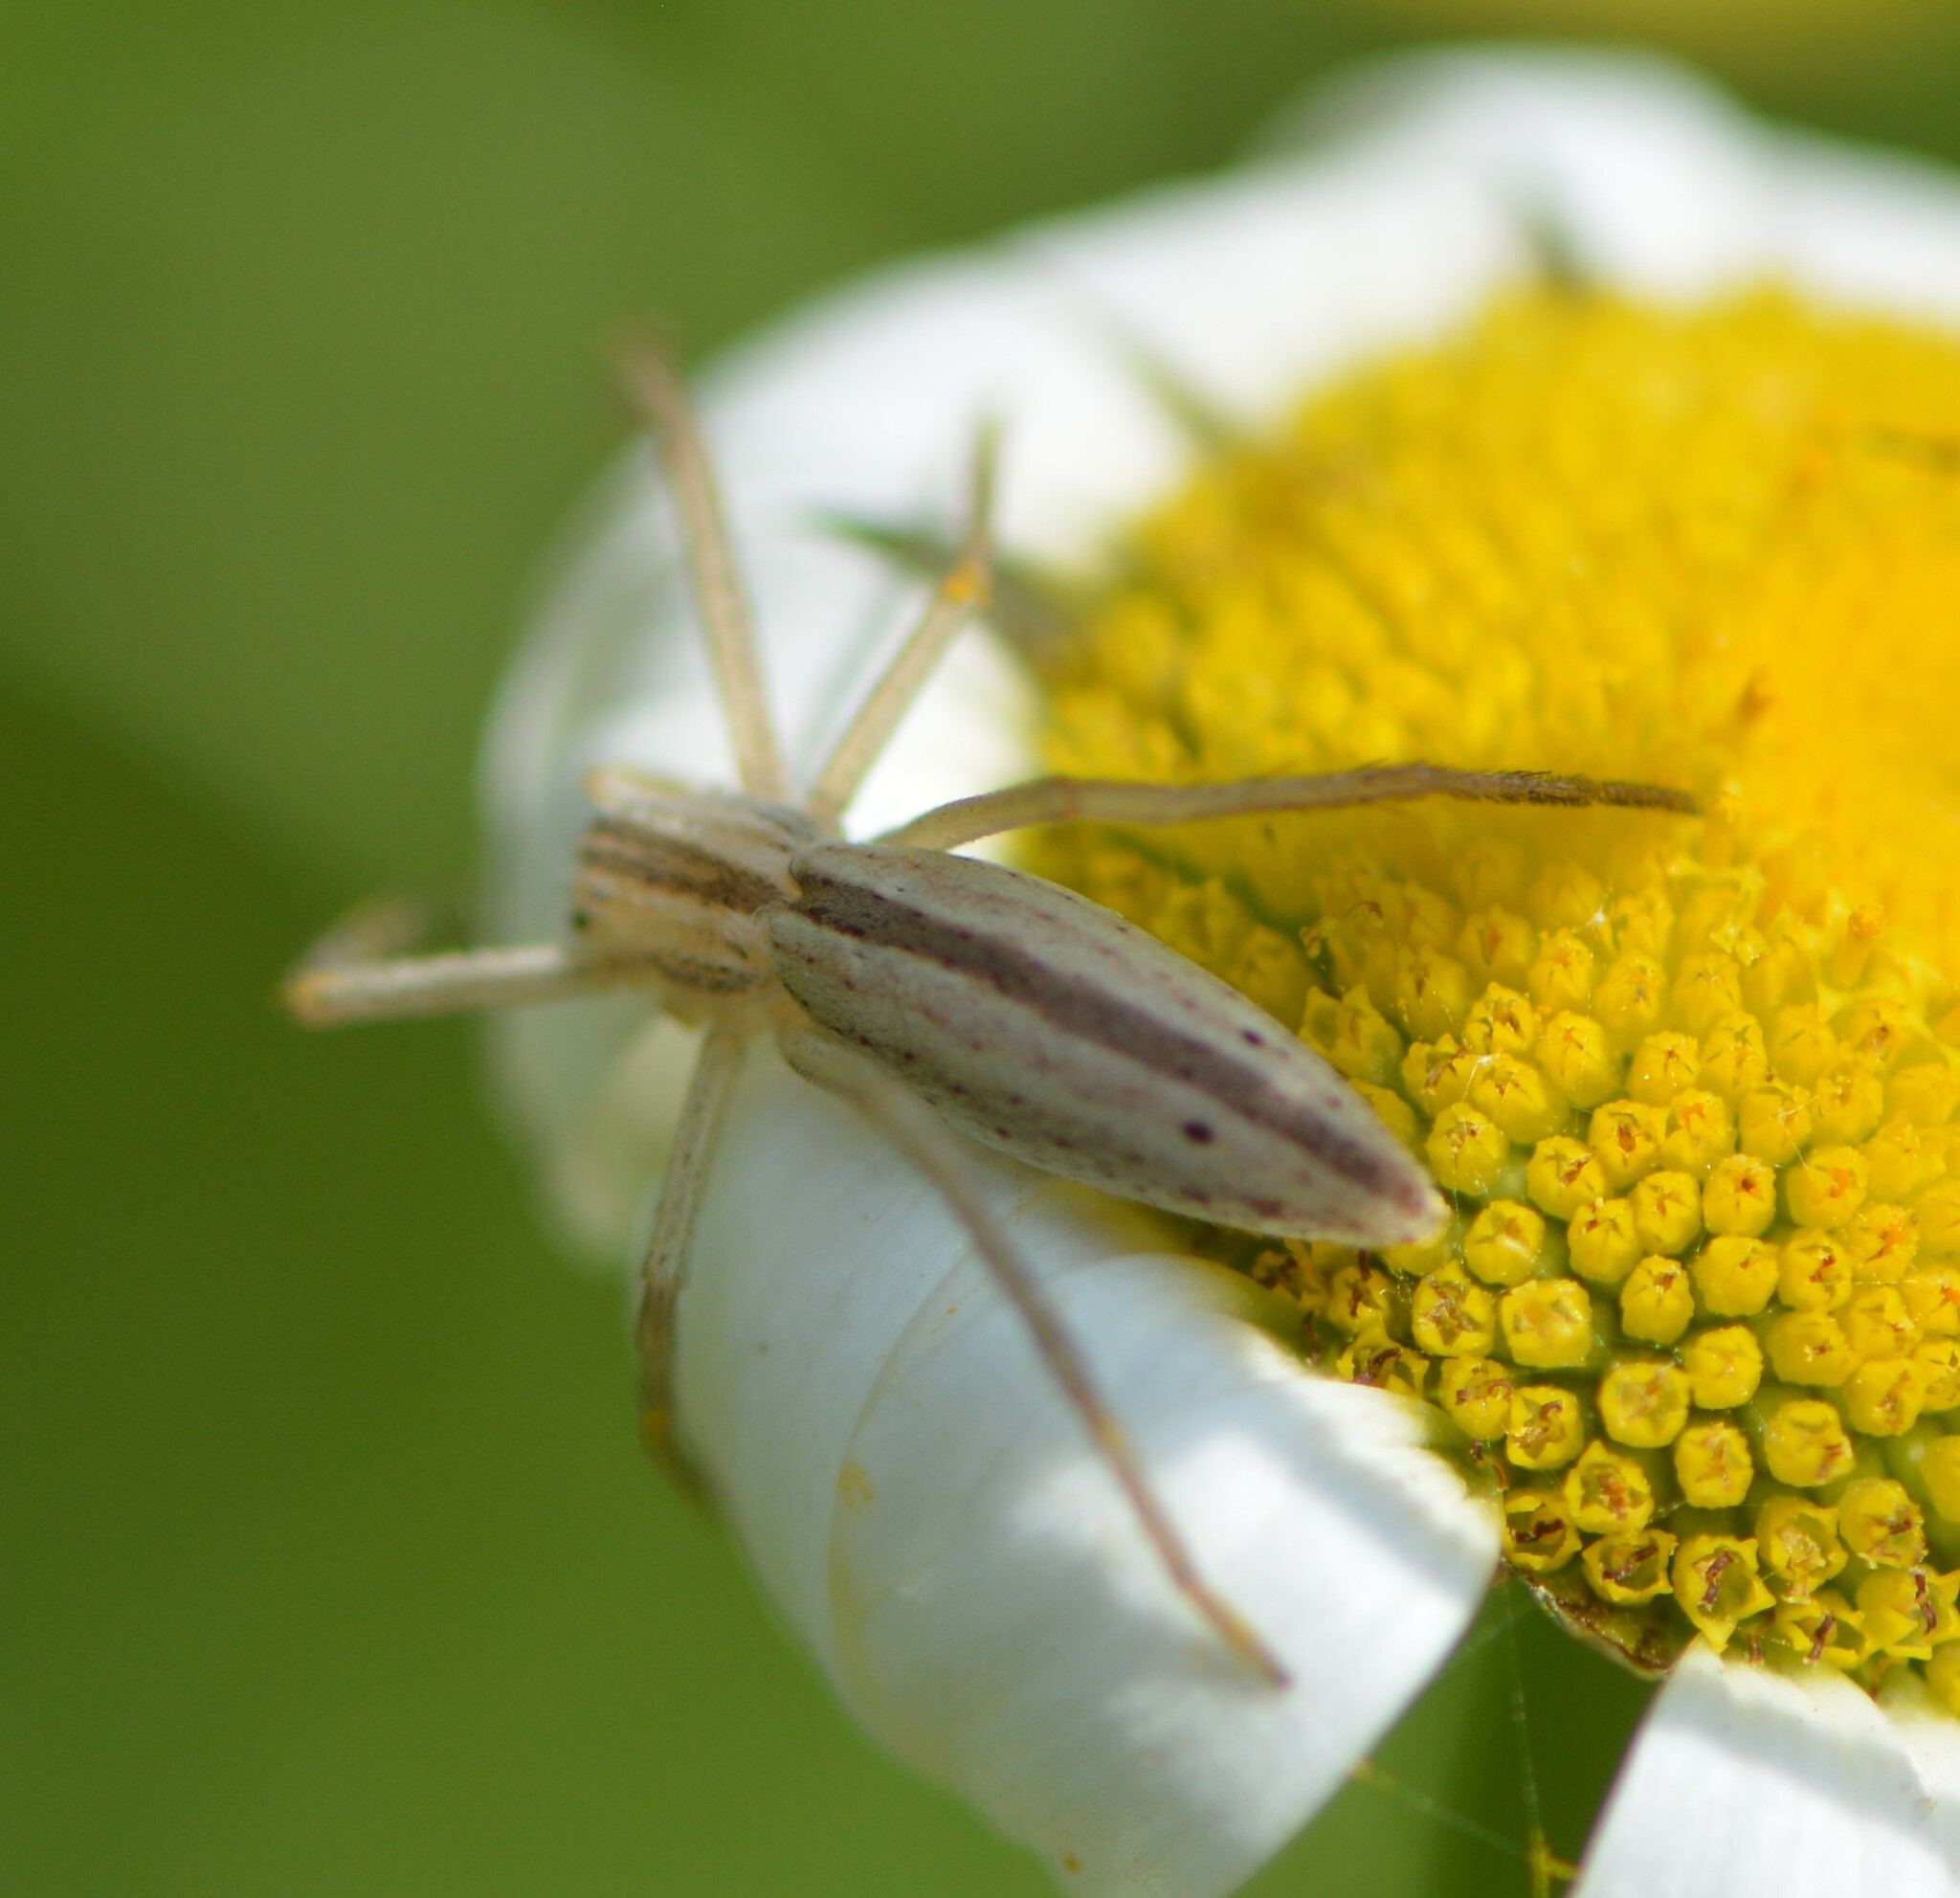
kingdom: Animalia
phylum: Arthropoda
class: Arachnida
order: Araneae
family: Philodromidae
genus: Tibellus
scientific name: Tibellus oblongus
